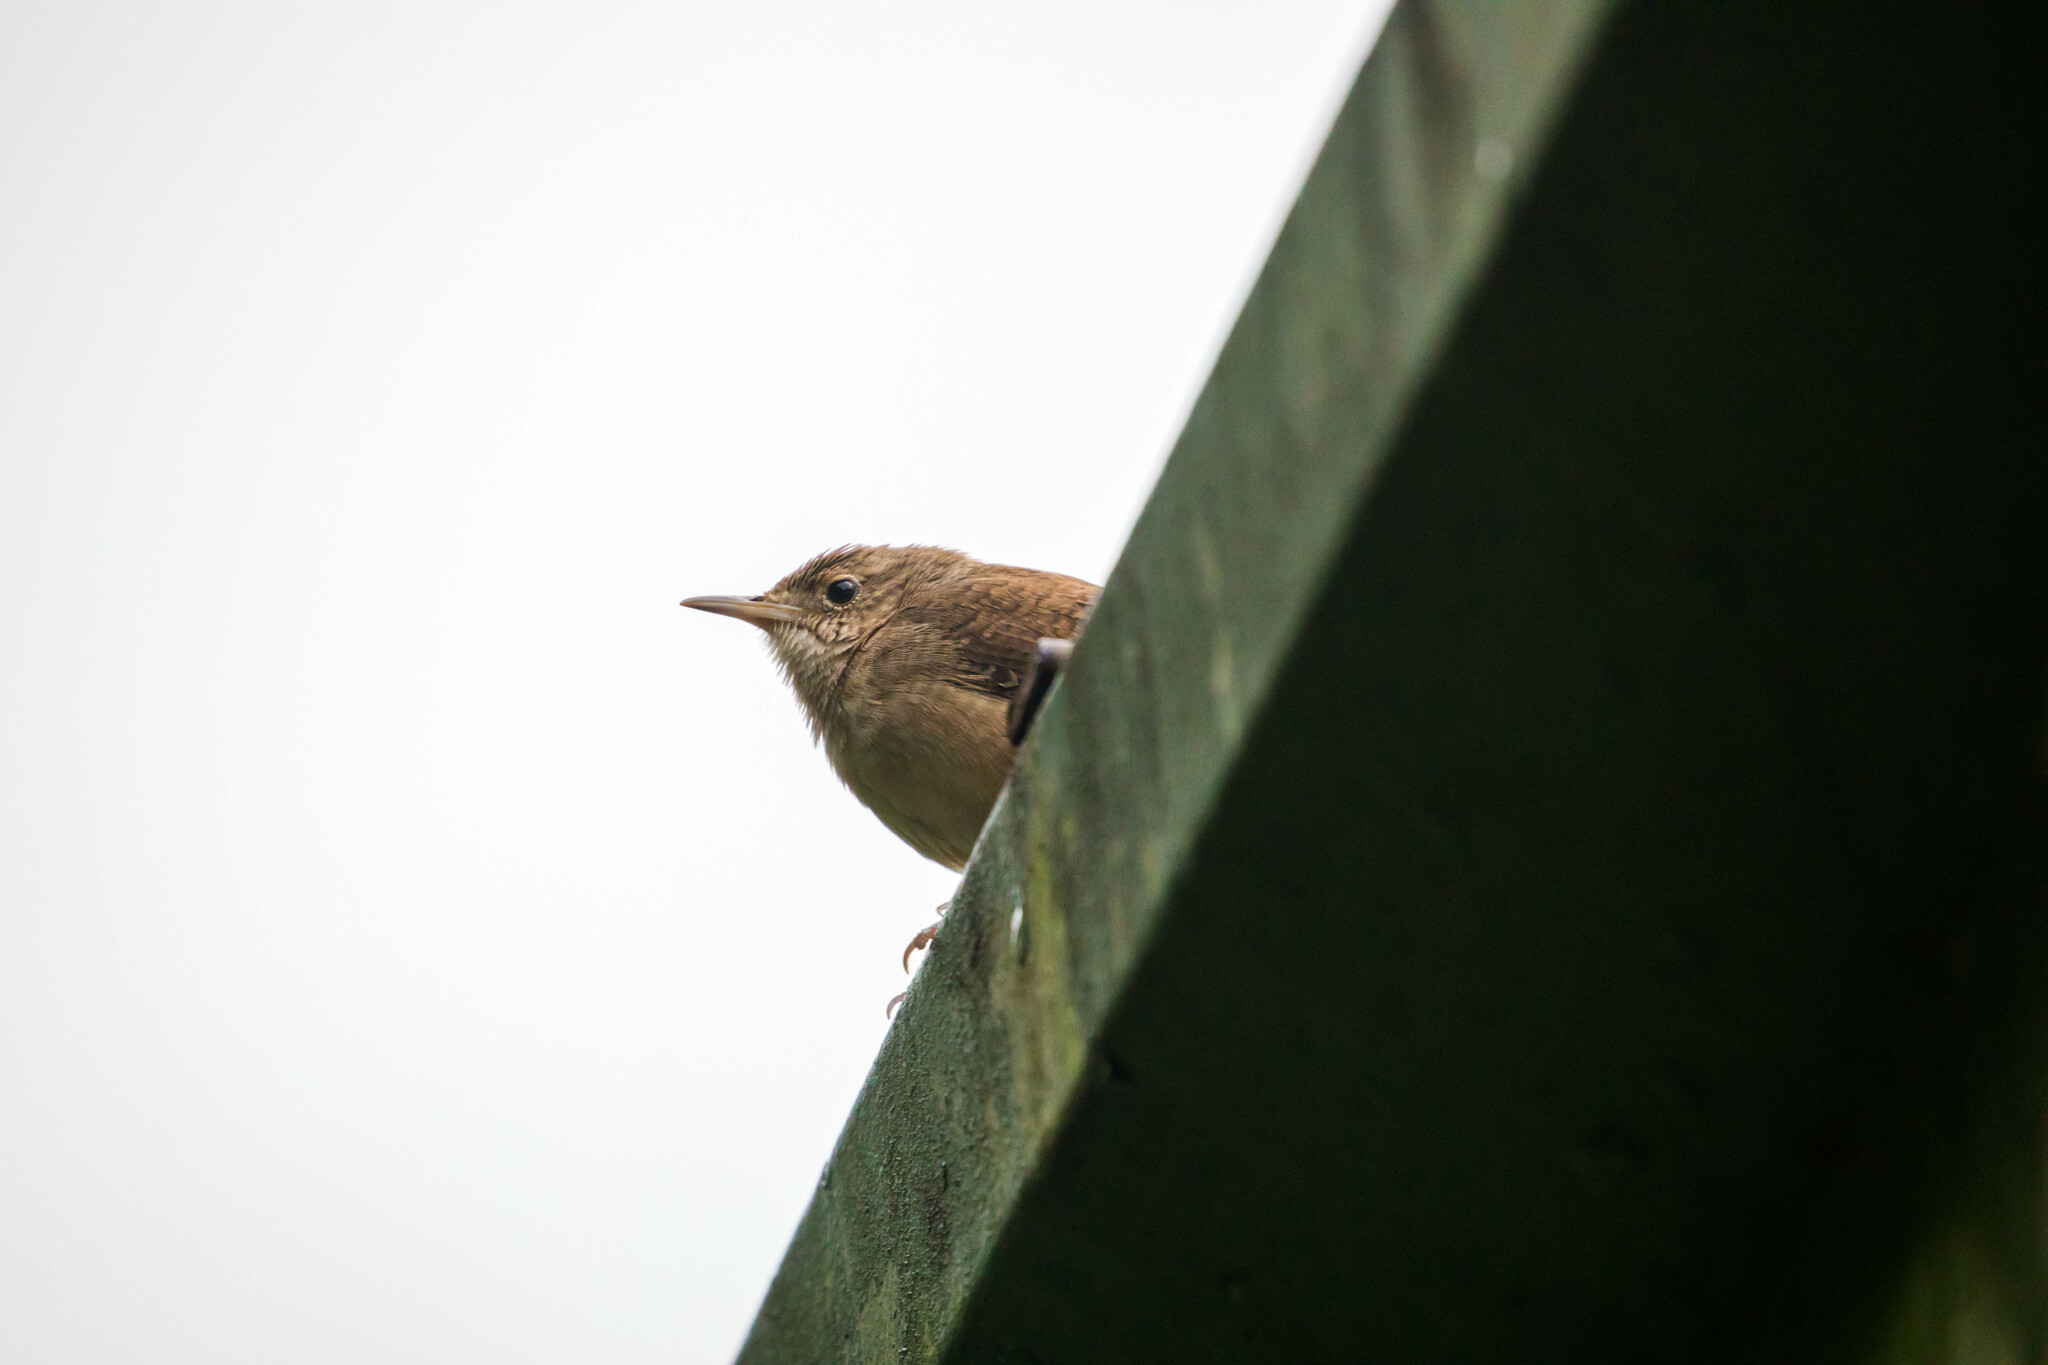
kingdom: Animalia
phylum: Chordata
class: Aves
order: Passeriformes
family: Troglodytidae
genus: Troglodytes
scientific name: Troglodytes aedon
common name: House wren
